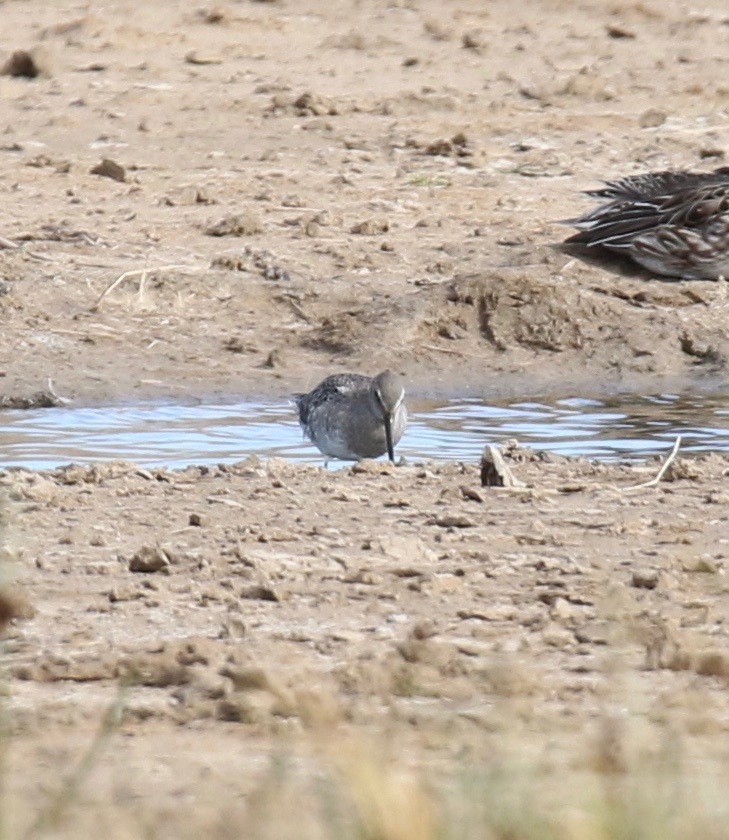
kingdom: Animalia
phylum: Chordata
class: Aves
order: Charadriiformes
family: Scolopacidae
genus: Limnodromus
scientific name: Limnodromus scolopaceus
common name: Long-billed dowitcher
